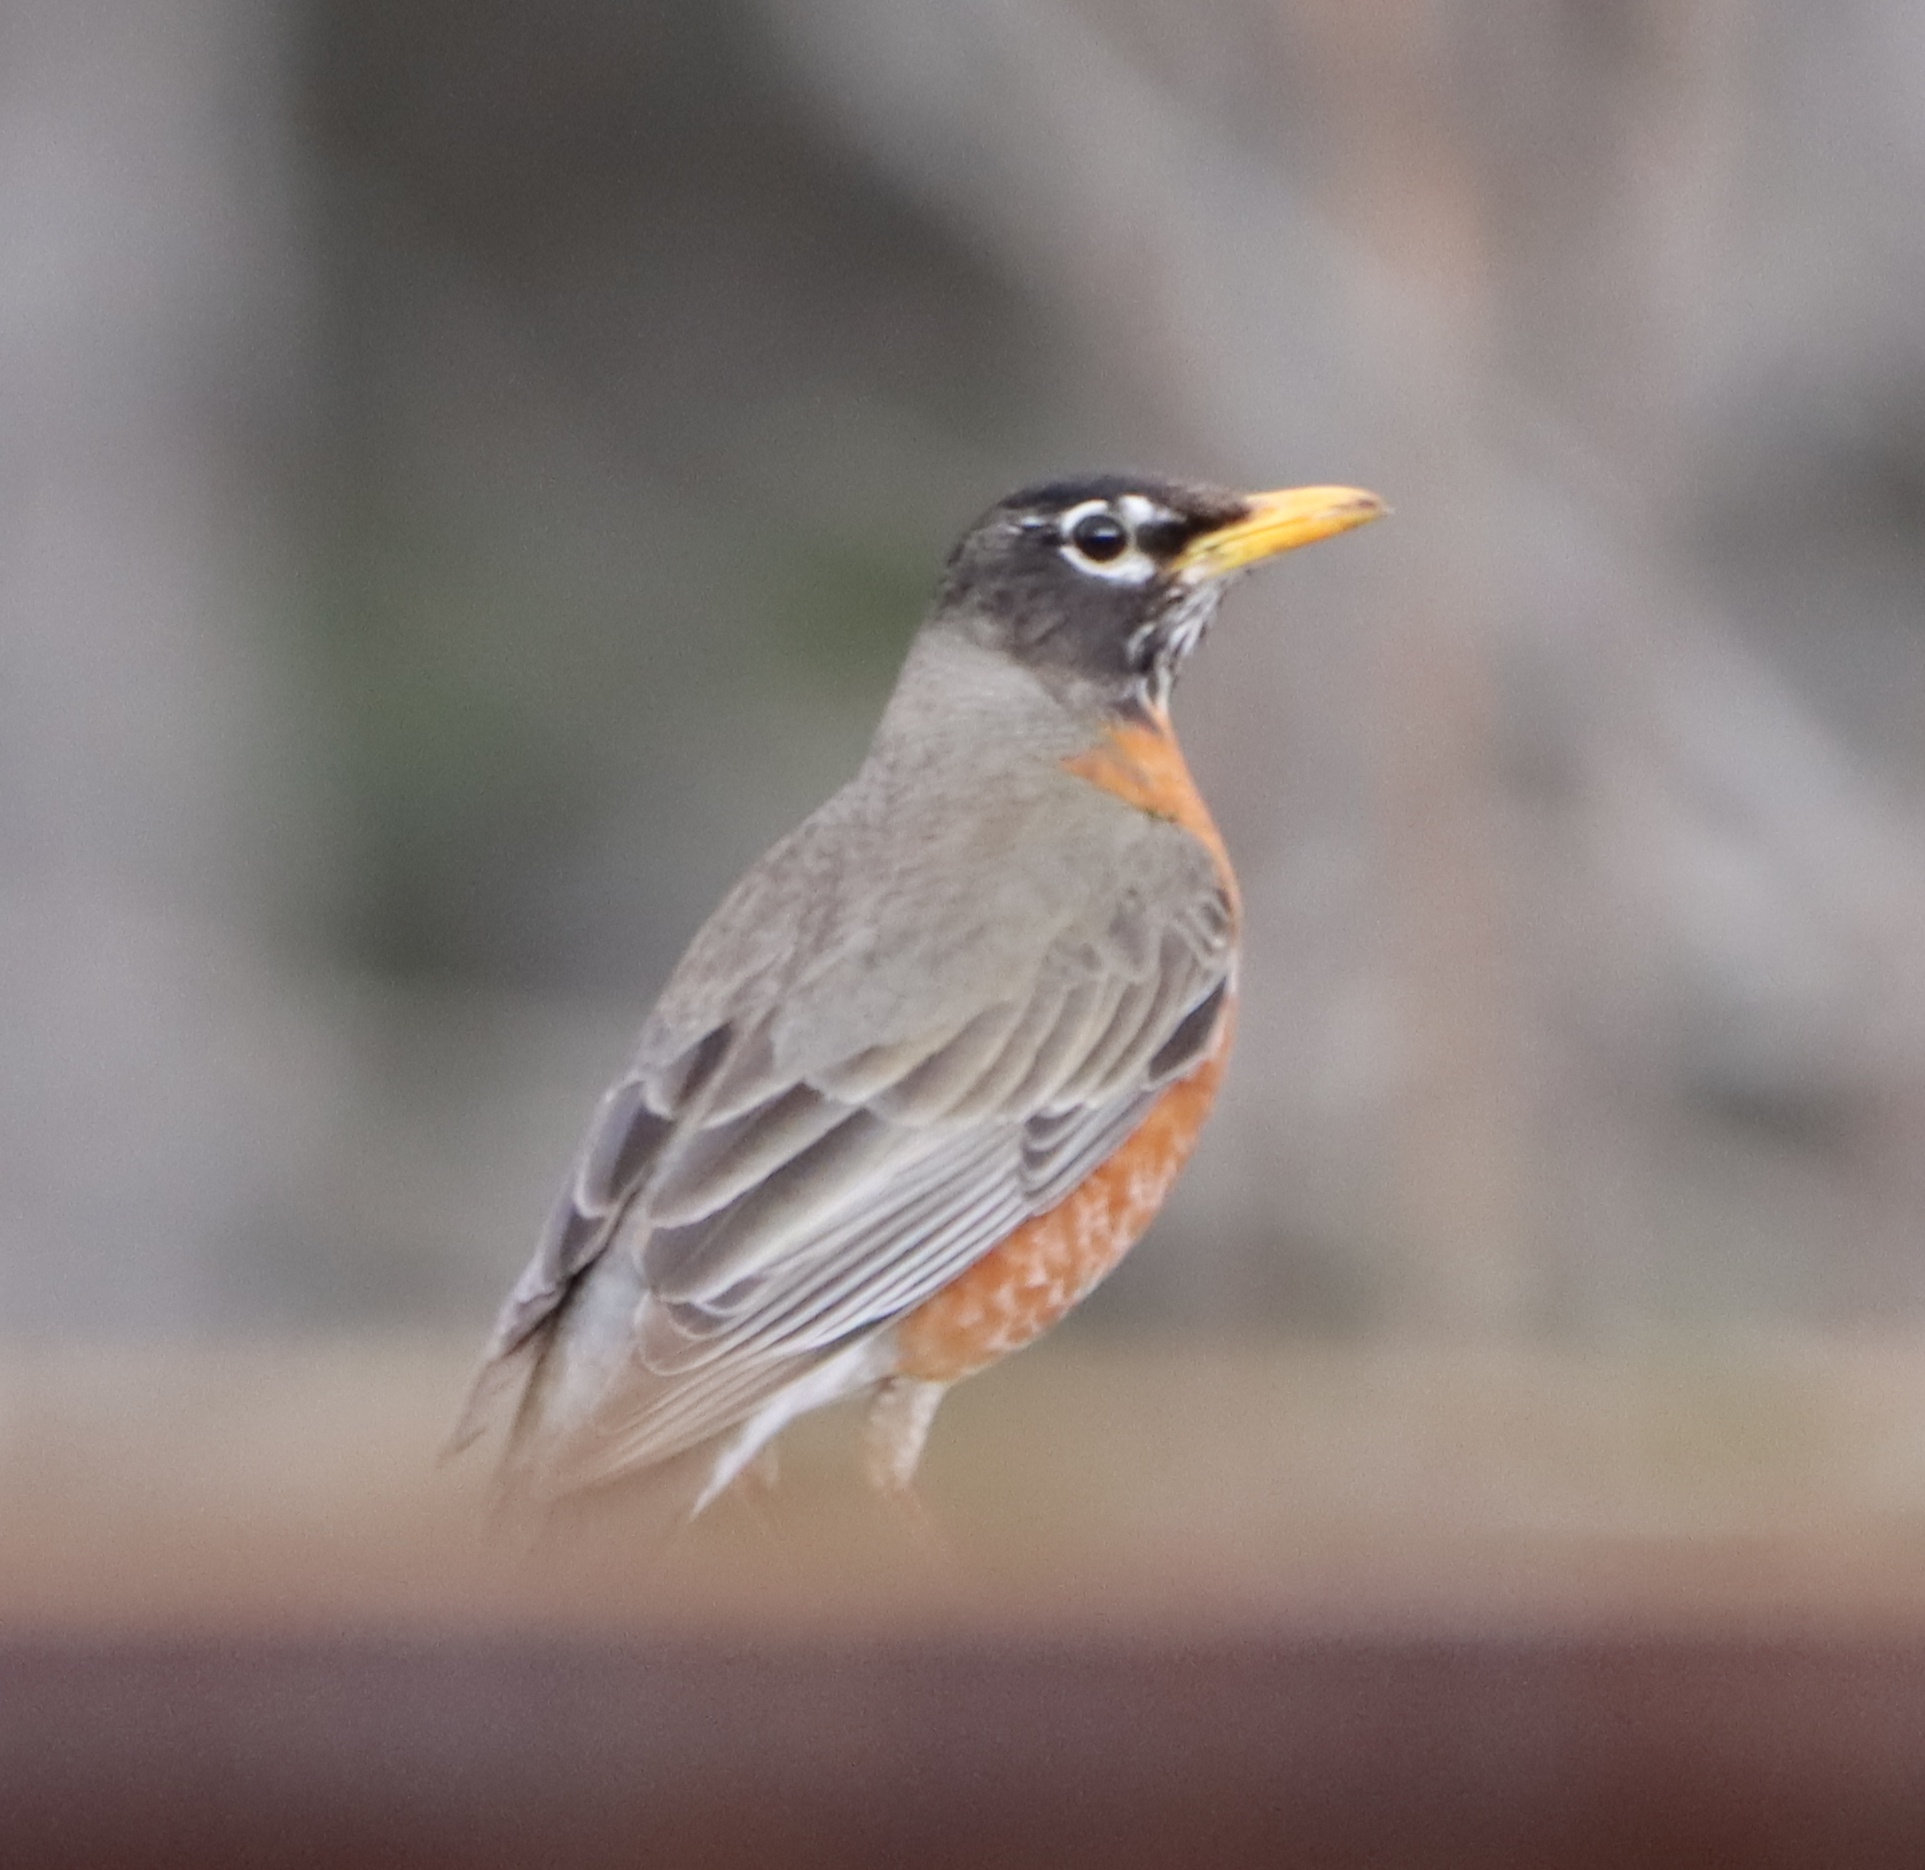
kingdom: Animalia
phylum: Chordata
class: Aves
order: Passeriformes
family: Turdidae
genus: Turdus
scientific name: Turdus migratorius
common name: American robin
